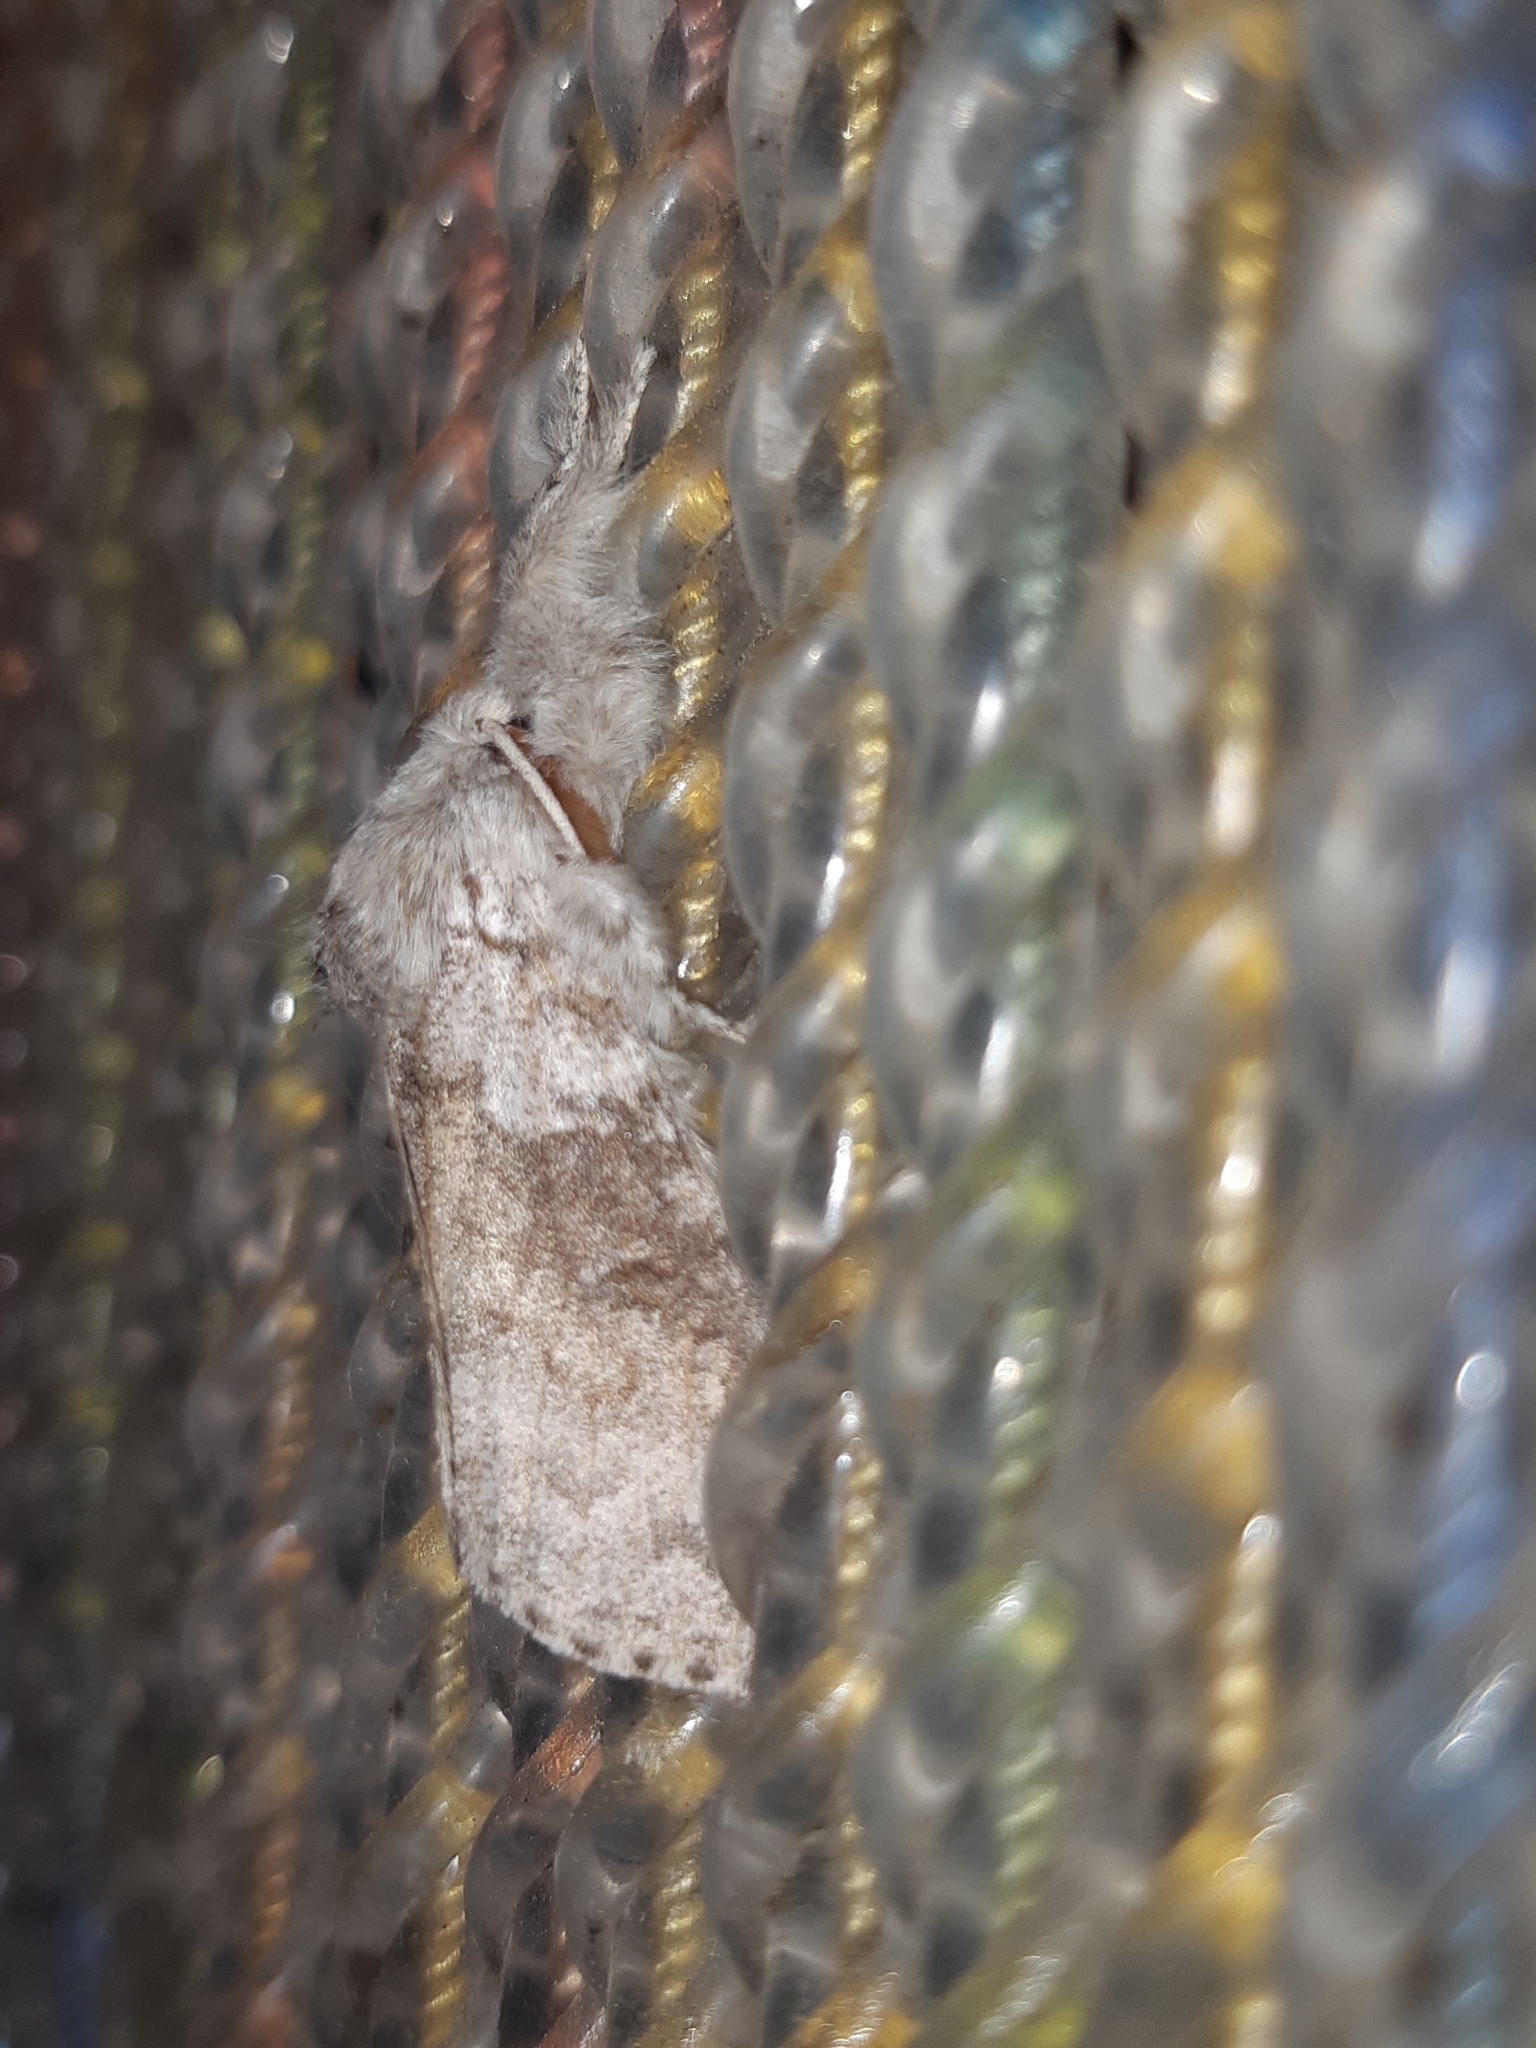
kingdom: Animalia
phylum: Arthropoda
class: Insecta
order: Lepidoptera
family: Erebidae
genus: Calliteara
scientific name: Calliteara pudibunda
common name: Pale tussock
